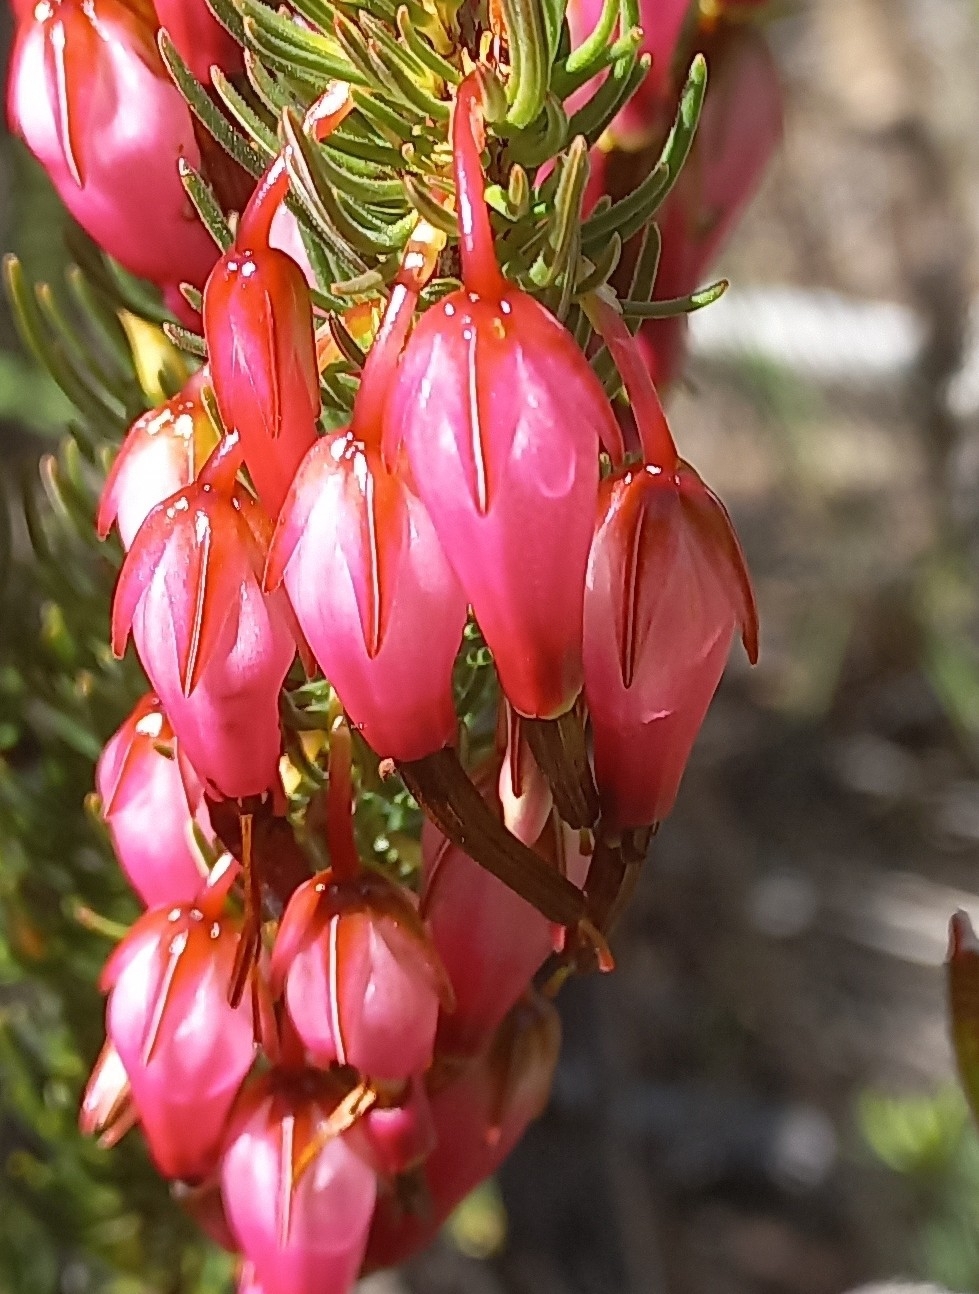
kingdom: Plantae
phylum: Tracheophyta
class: Magnoliopsida
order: Ericales
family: Ericaceae
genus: Erica
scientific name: Erica plukenetii
